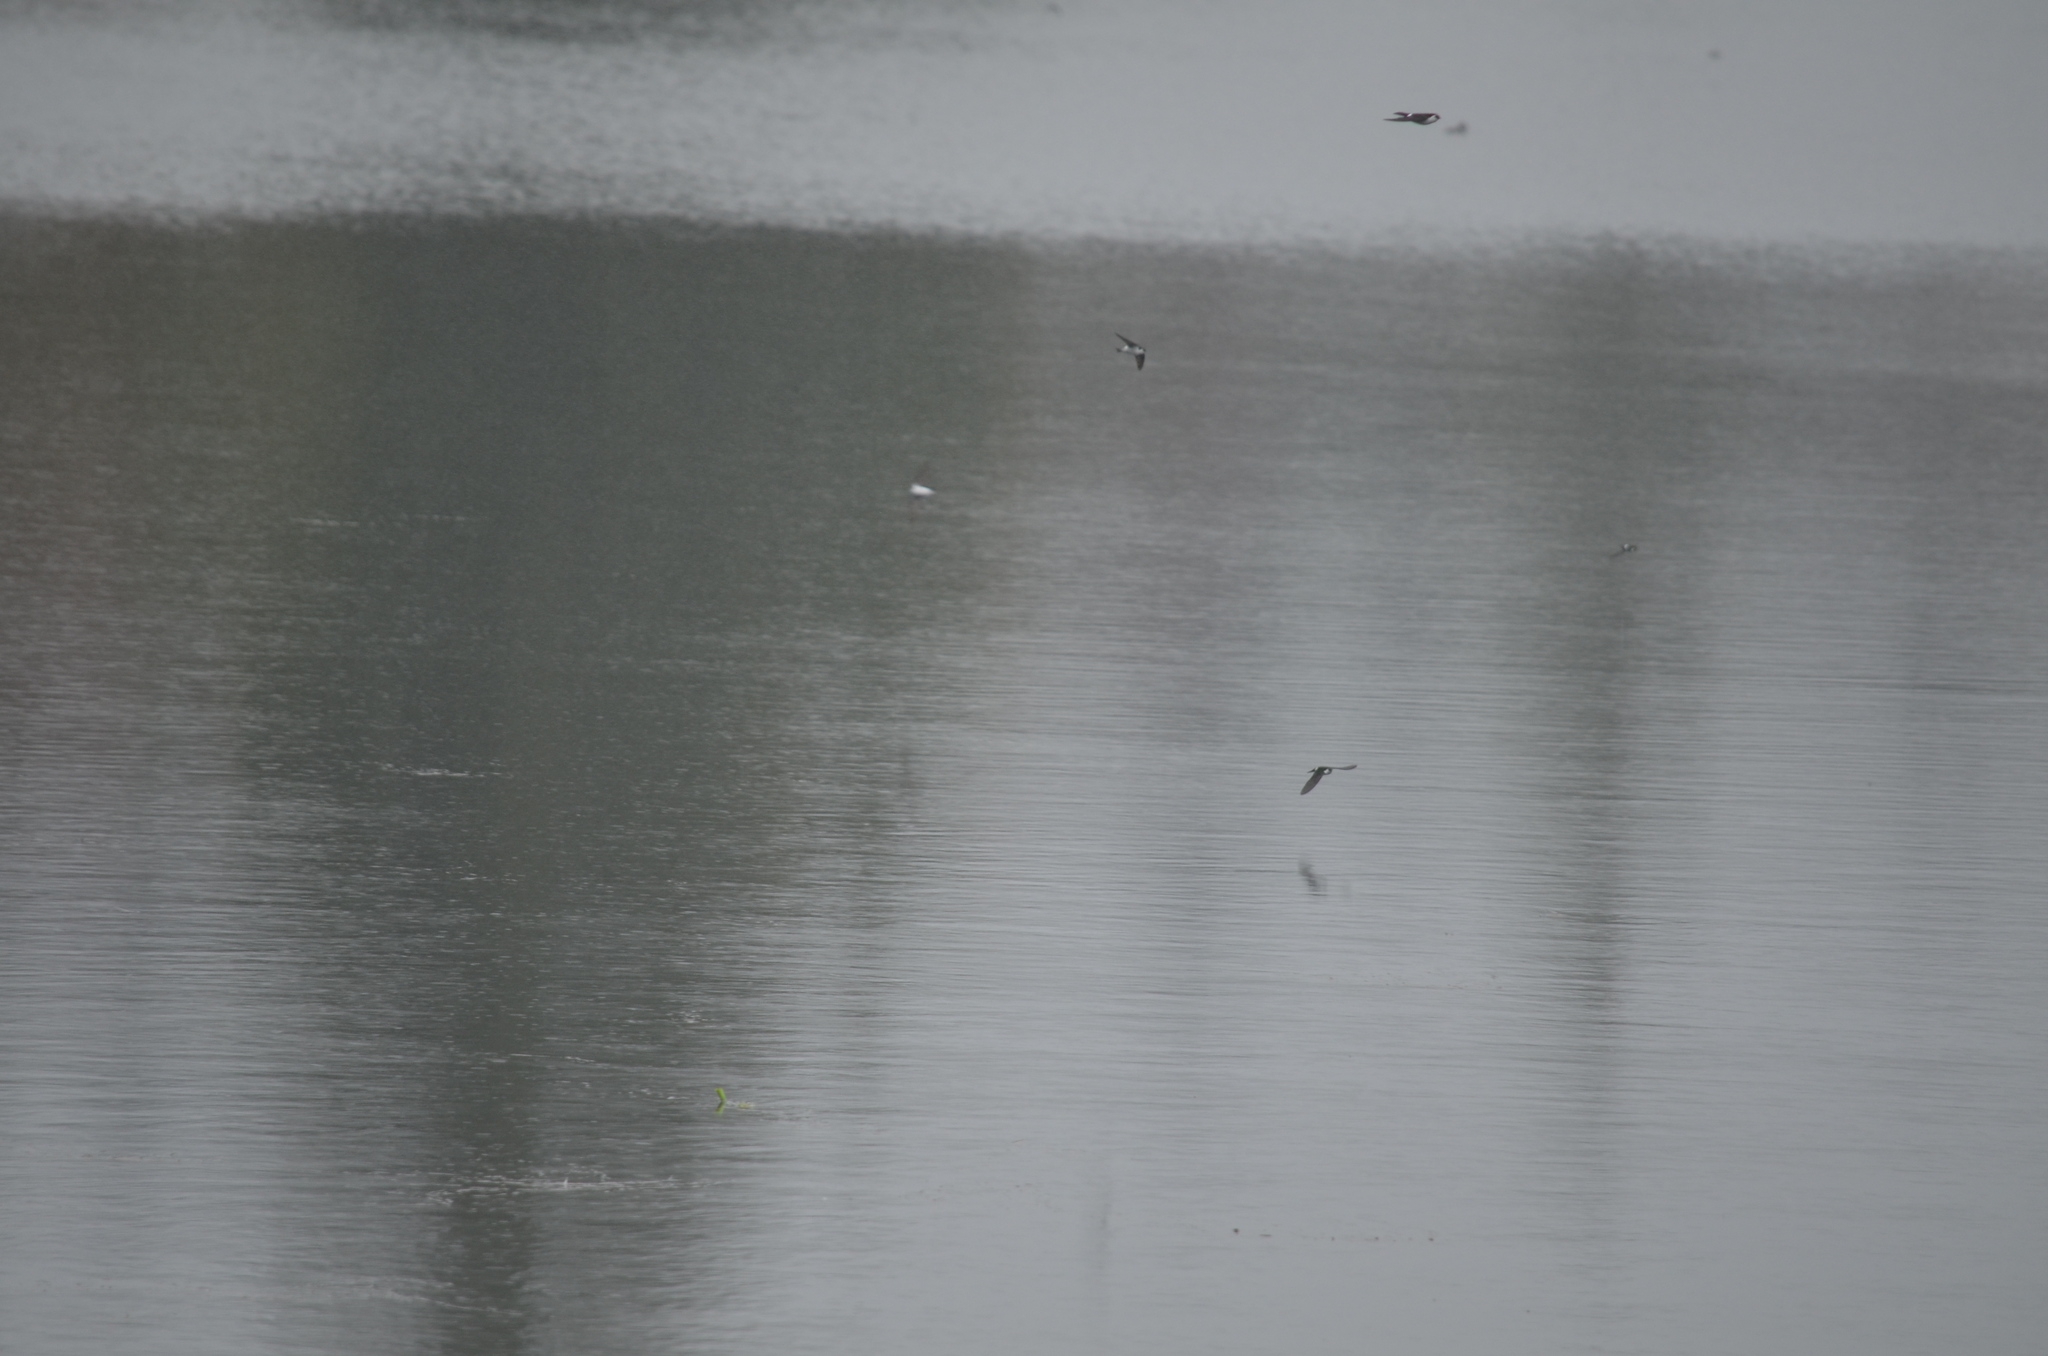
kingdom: Animalia
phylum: Chordata
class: Aves
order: Passeriformes
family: Hirundinidae
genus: Tachycineta
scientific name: Tachycineta thalassina
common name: Violet-green swallow
